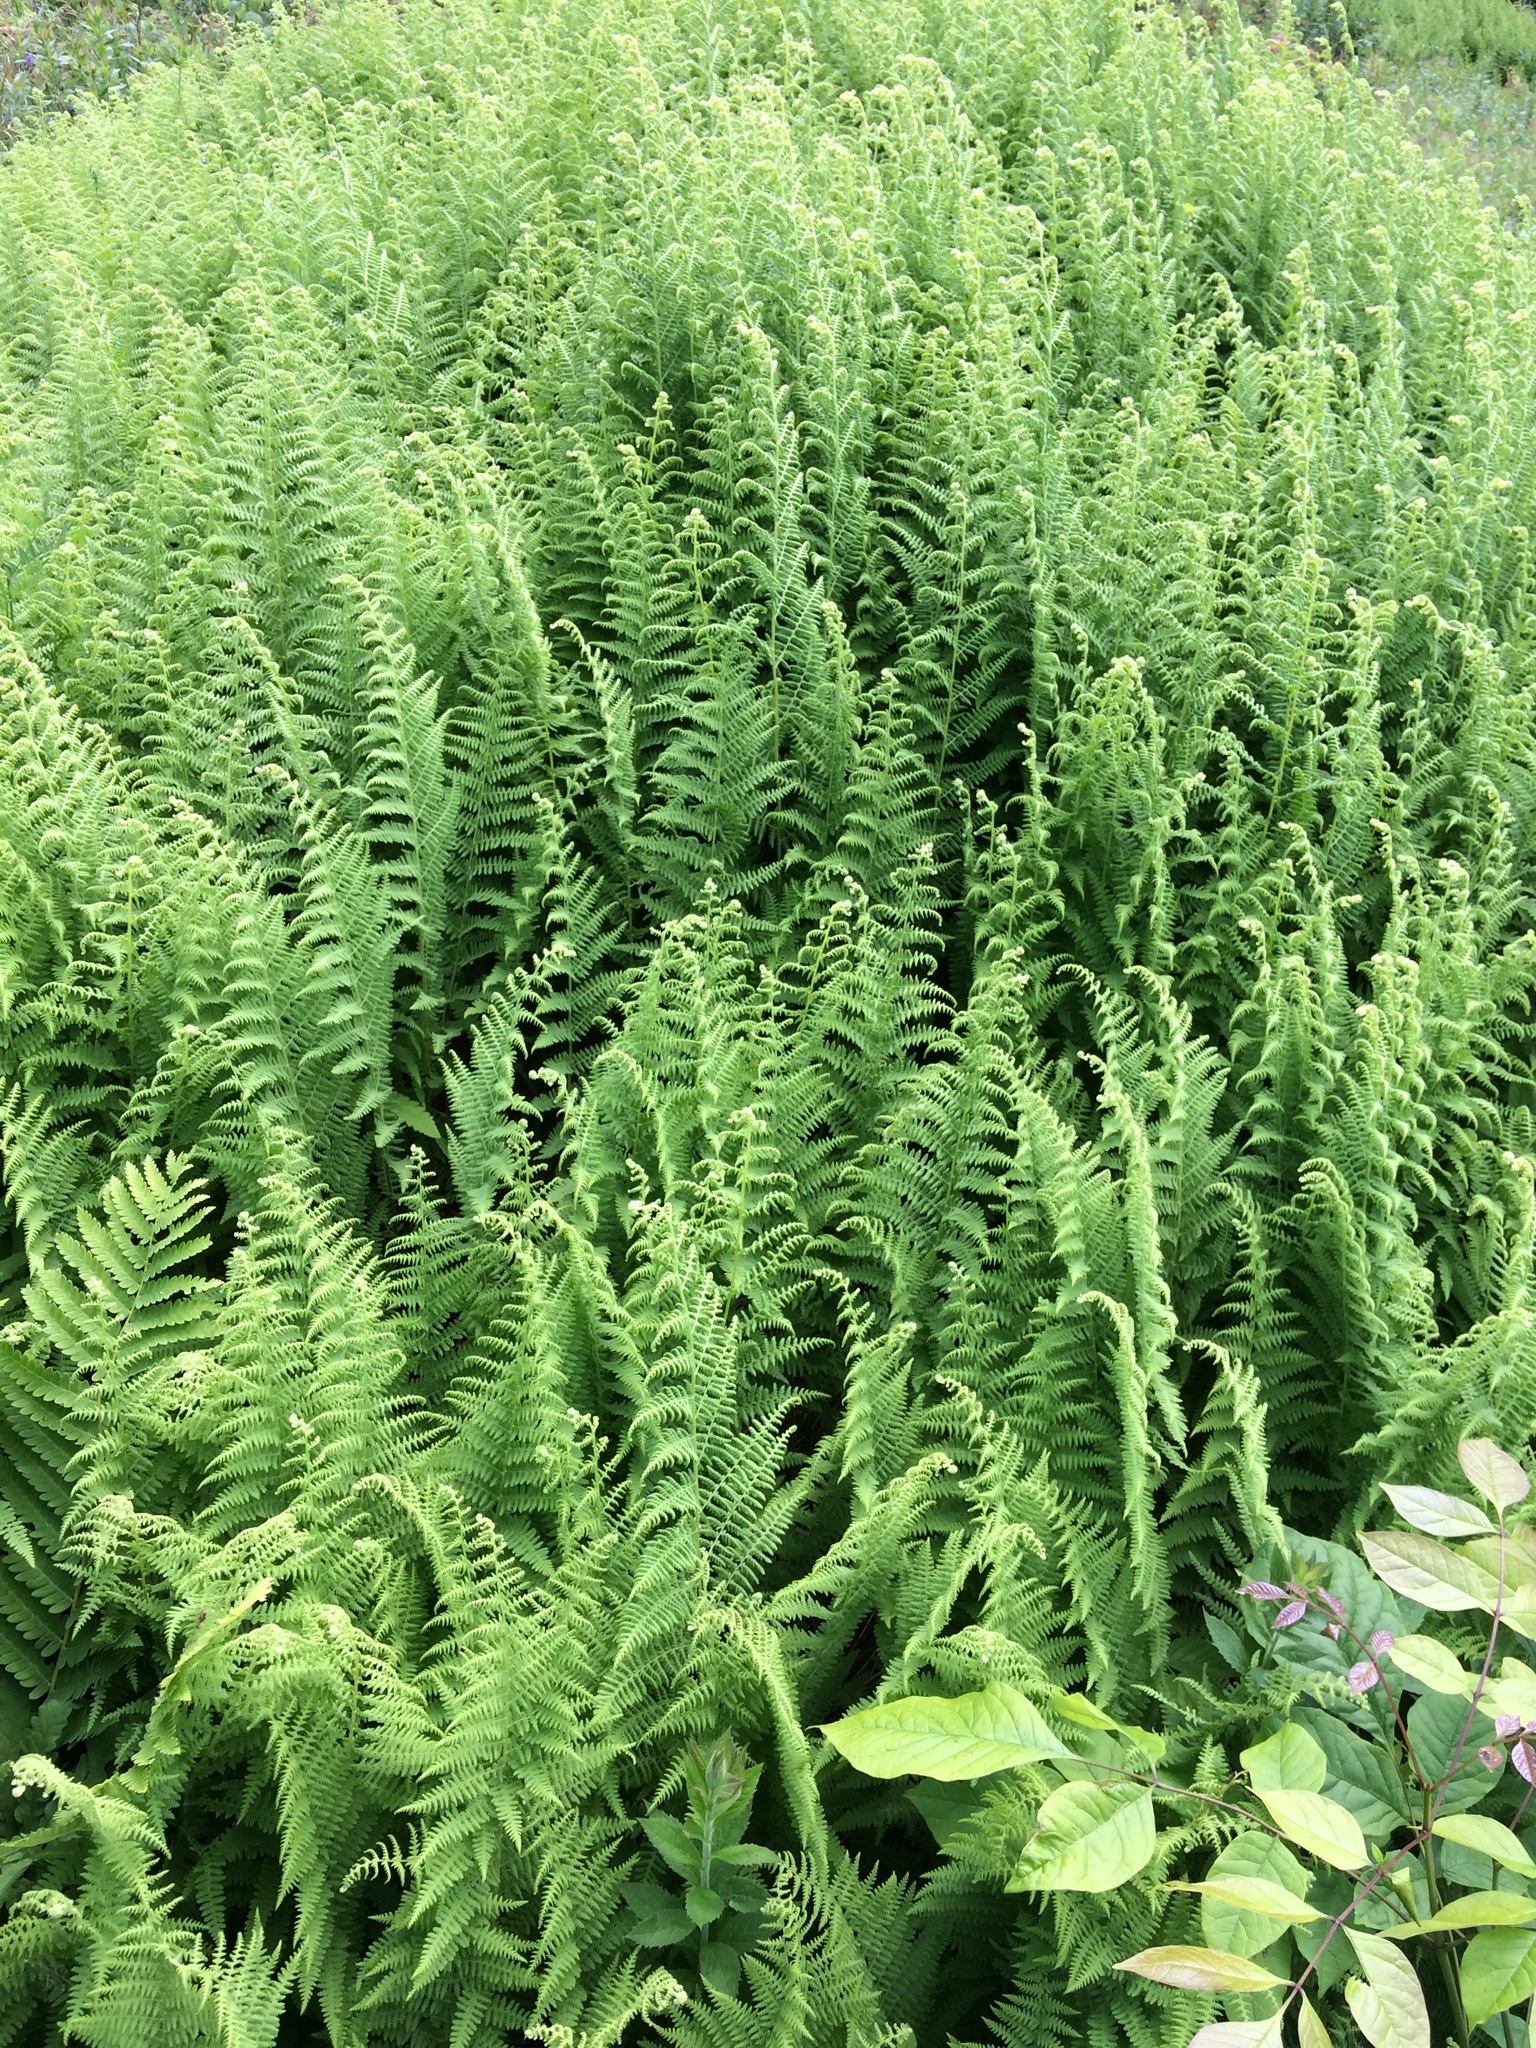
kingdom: Plantae
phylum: Tracheophyta
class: Polypodiopsida
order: Polypodiales
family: Dennstaedtiaceae
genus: Sitobolium
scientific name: Sitobolium punctilobum
